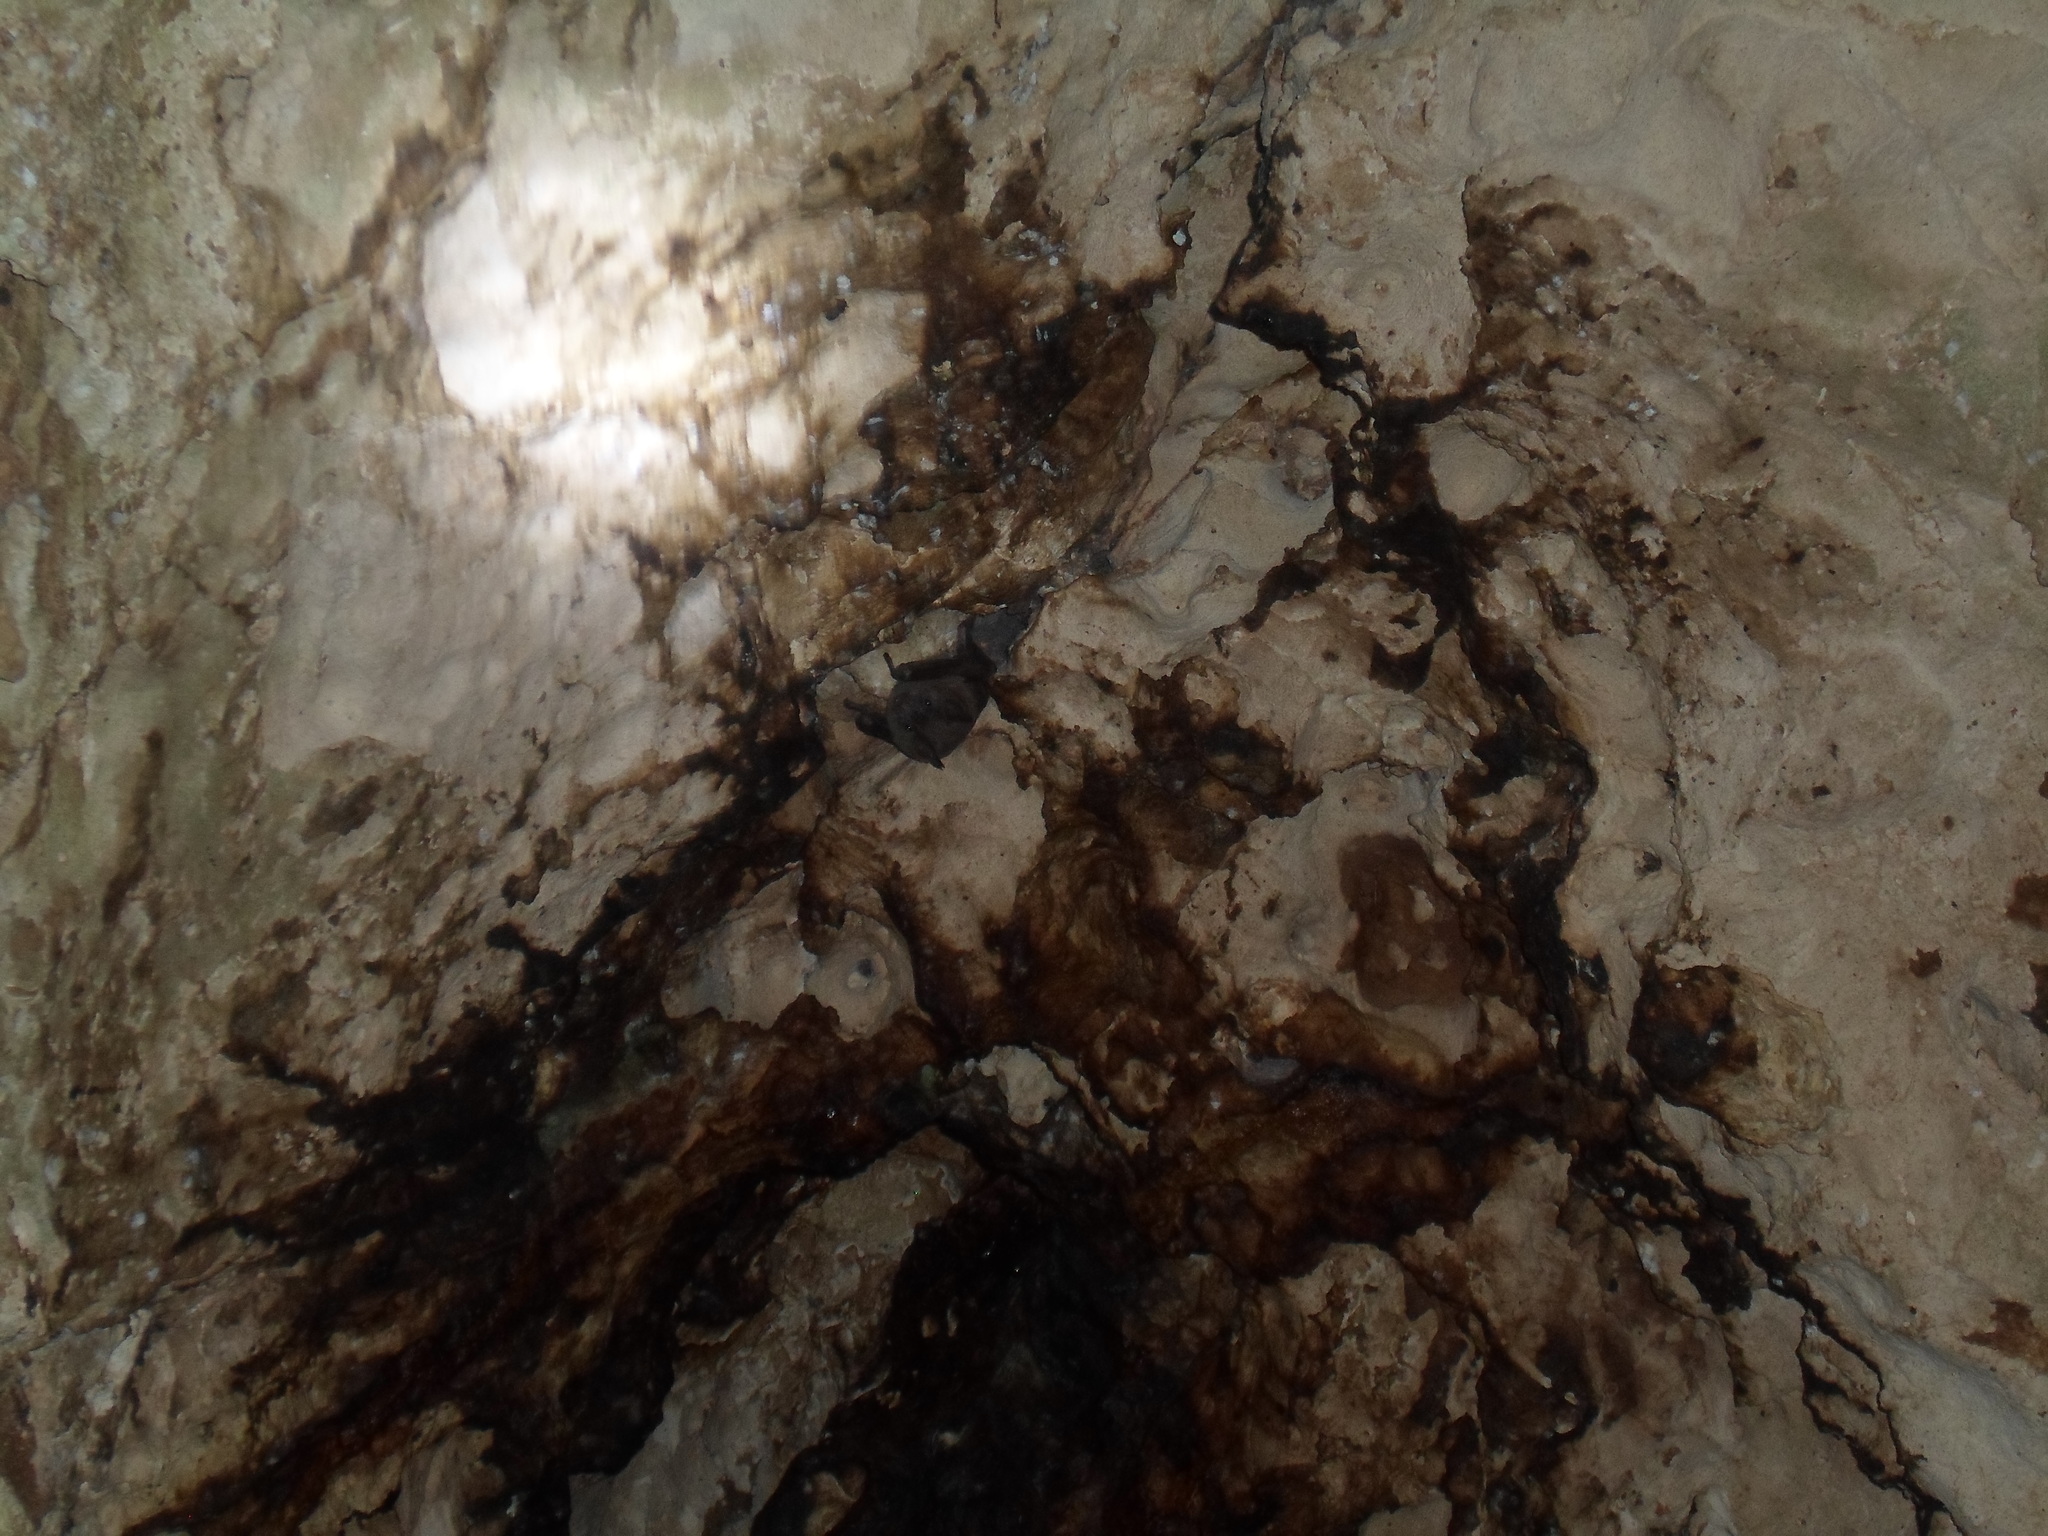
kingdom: Animalia
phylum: Chordata
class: Mammalia
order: Chiroptera
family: Phyllostomidae
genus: Artibeus
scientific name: Artibeus jamaicensis
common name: Jamaican fruit-eating bat
